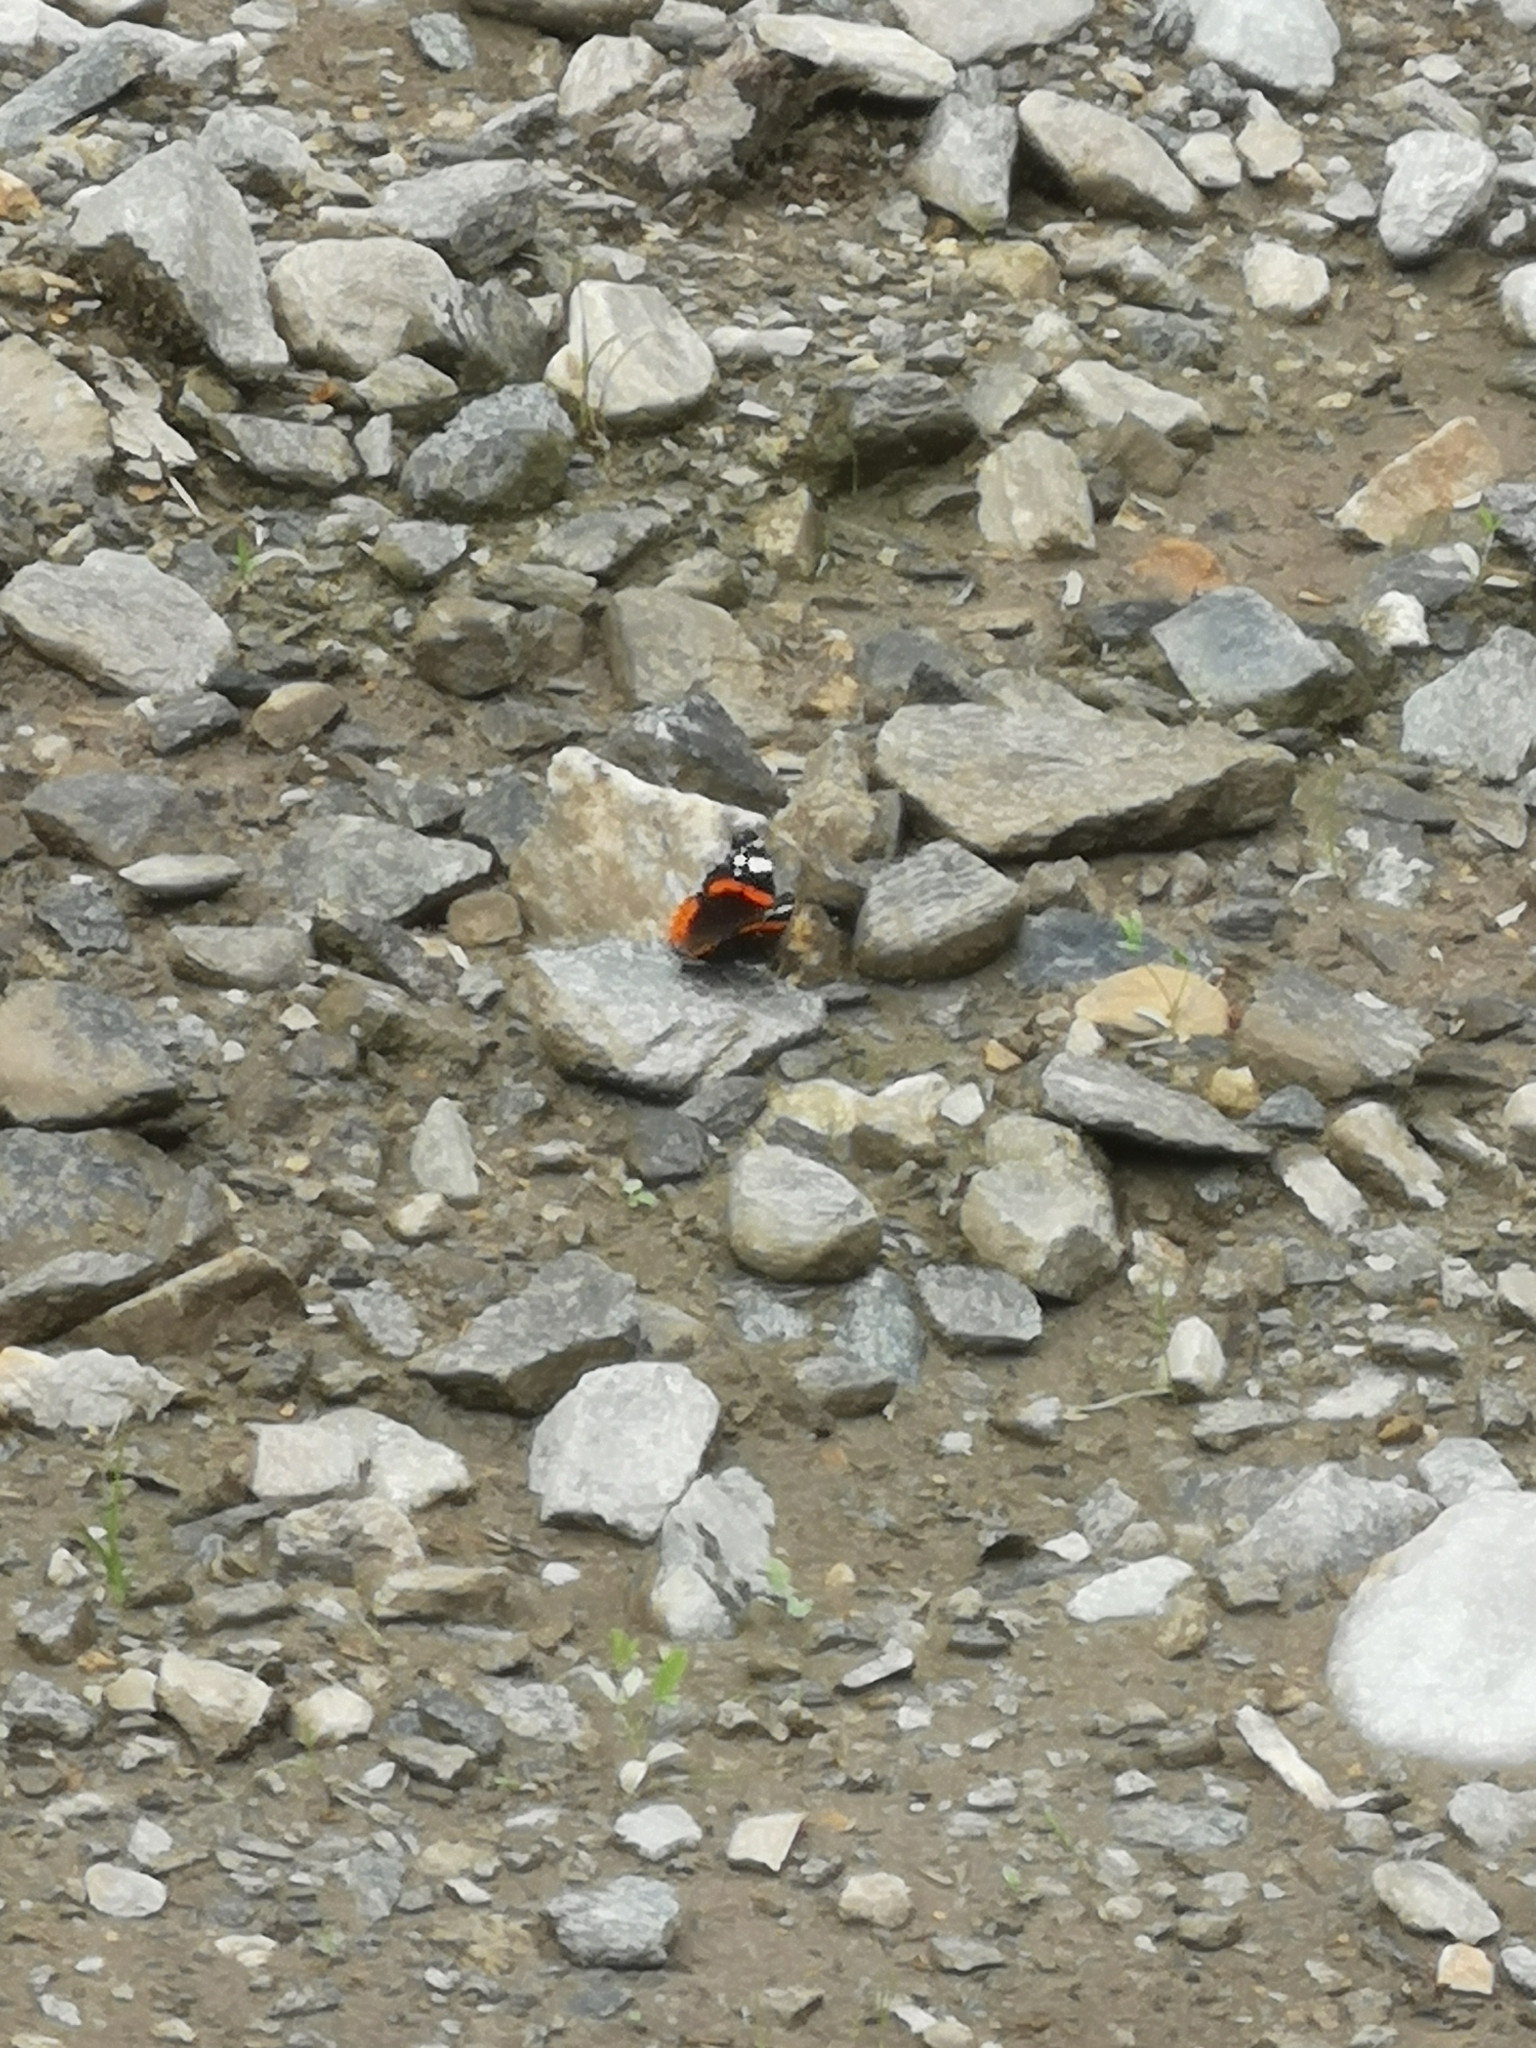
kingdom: Animalia
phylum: Arthropoda
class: Insecta
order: Lepidoptera
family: Nymphalidae
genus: Vanessa
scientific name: Vanessa atalanta
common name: Red admiral
